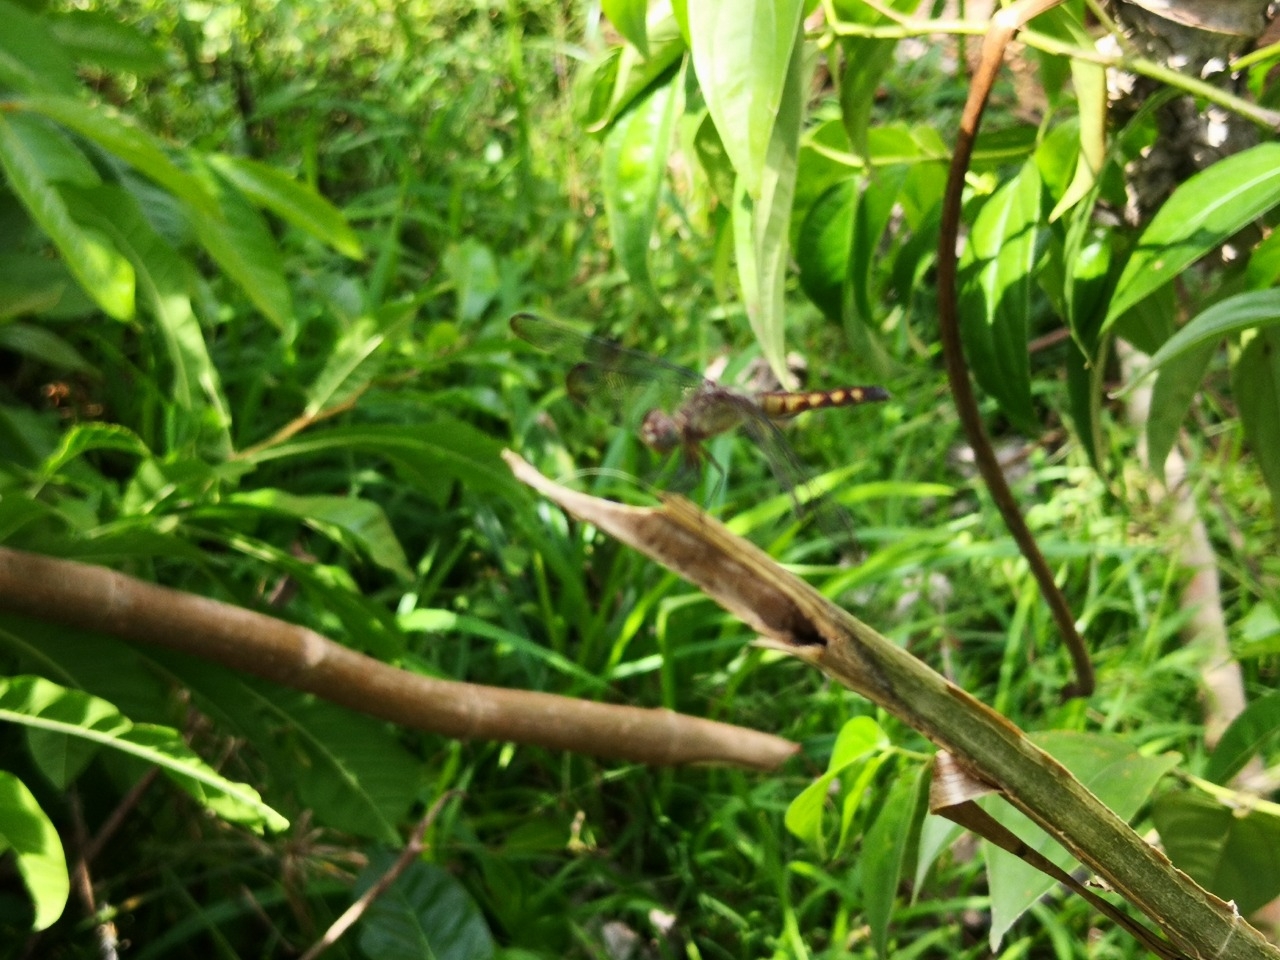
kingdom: Animalia
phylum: Arthropoda
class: Insecta
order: Odonata
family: Libellulidae
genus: Erythrodiplax
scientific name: Erythrodiplax fervida
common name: Red-mantled dragonlet
